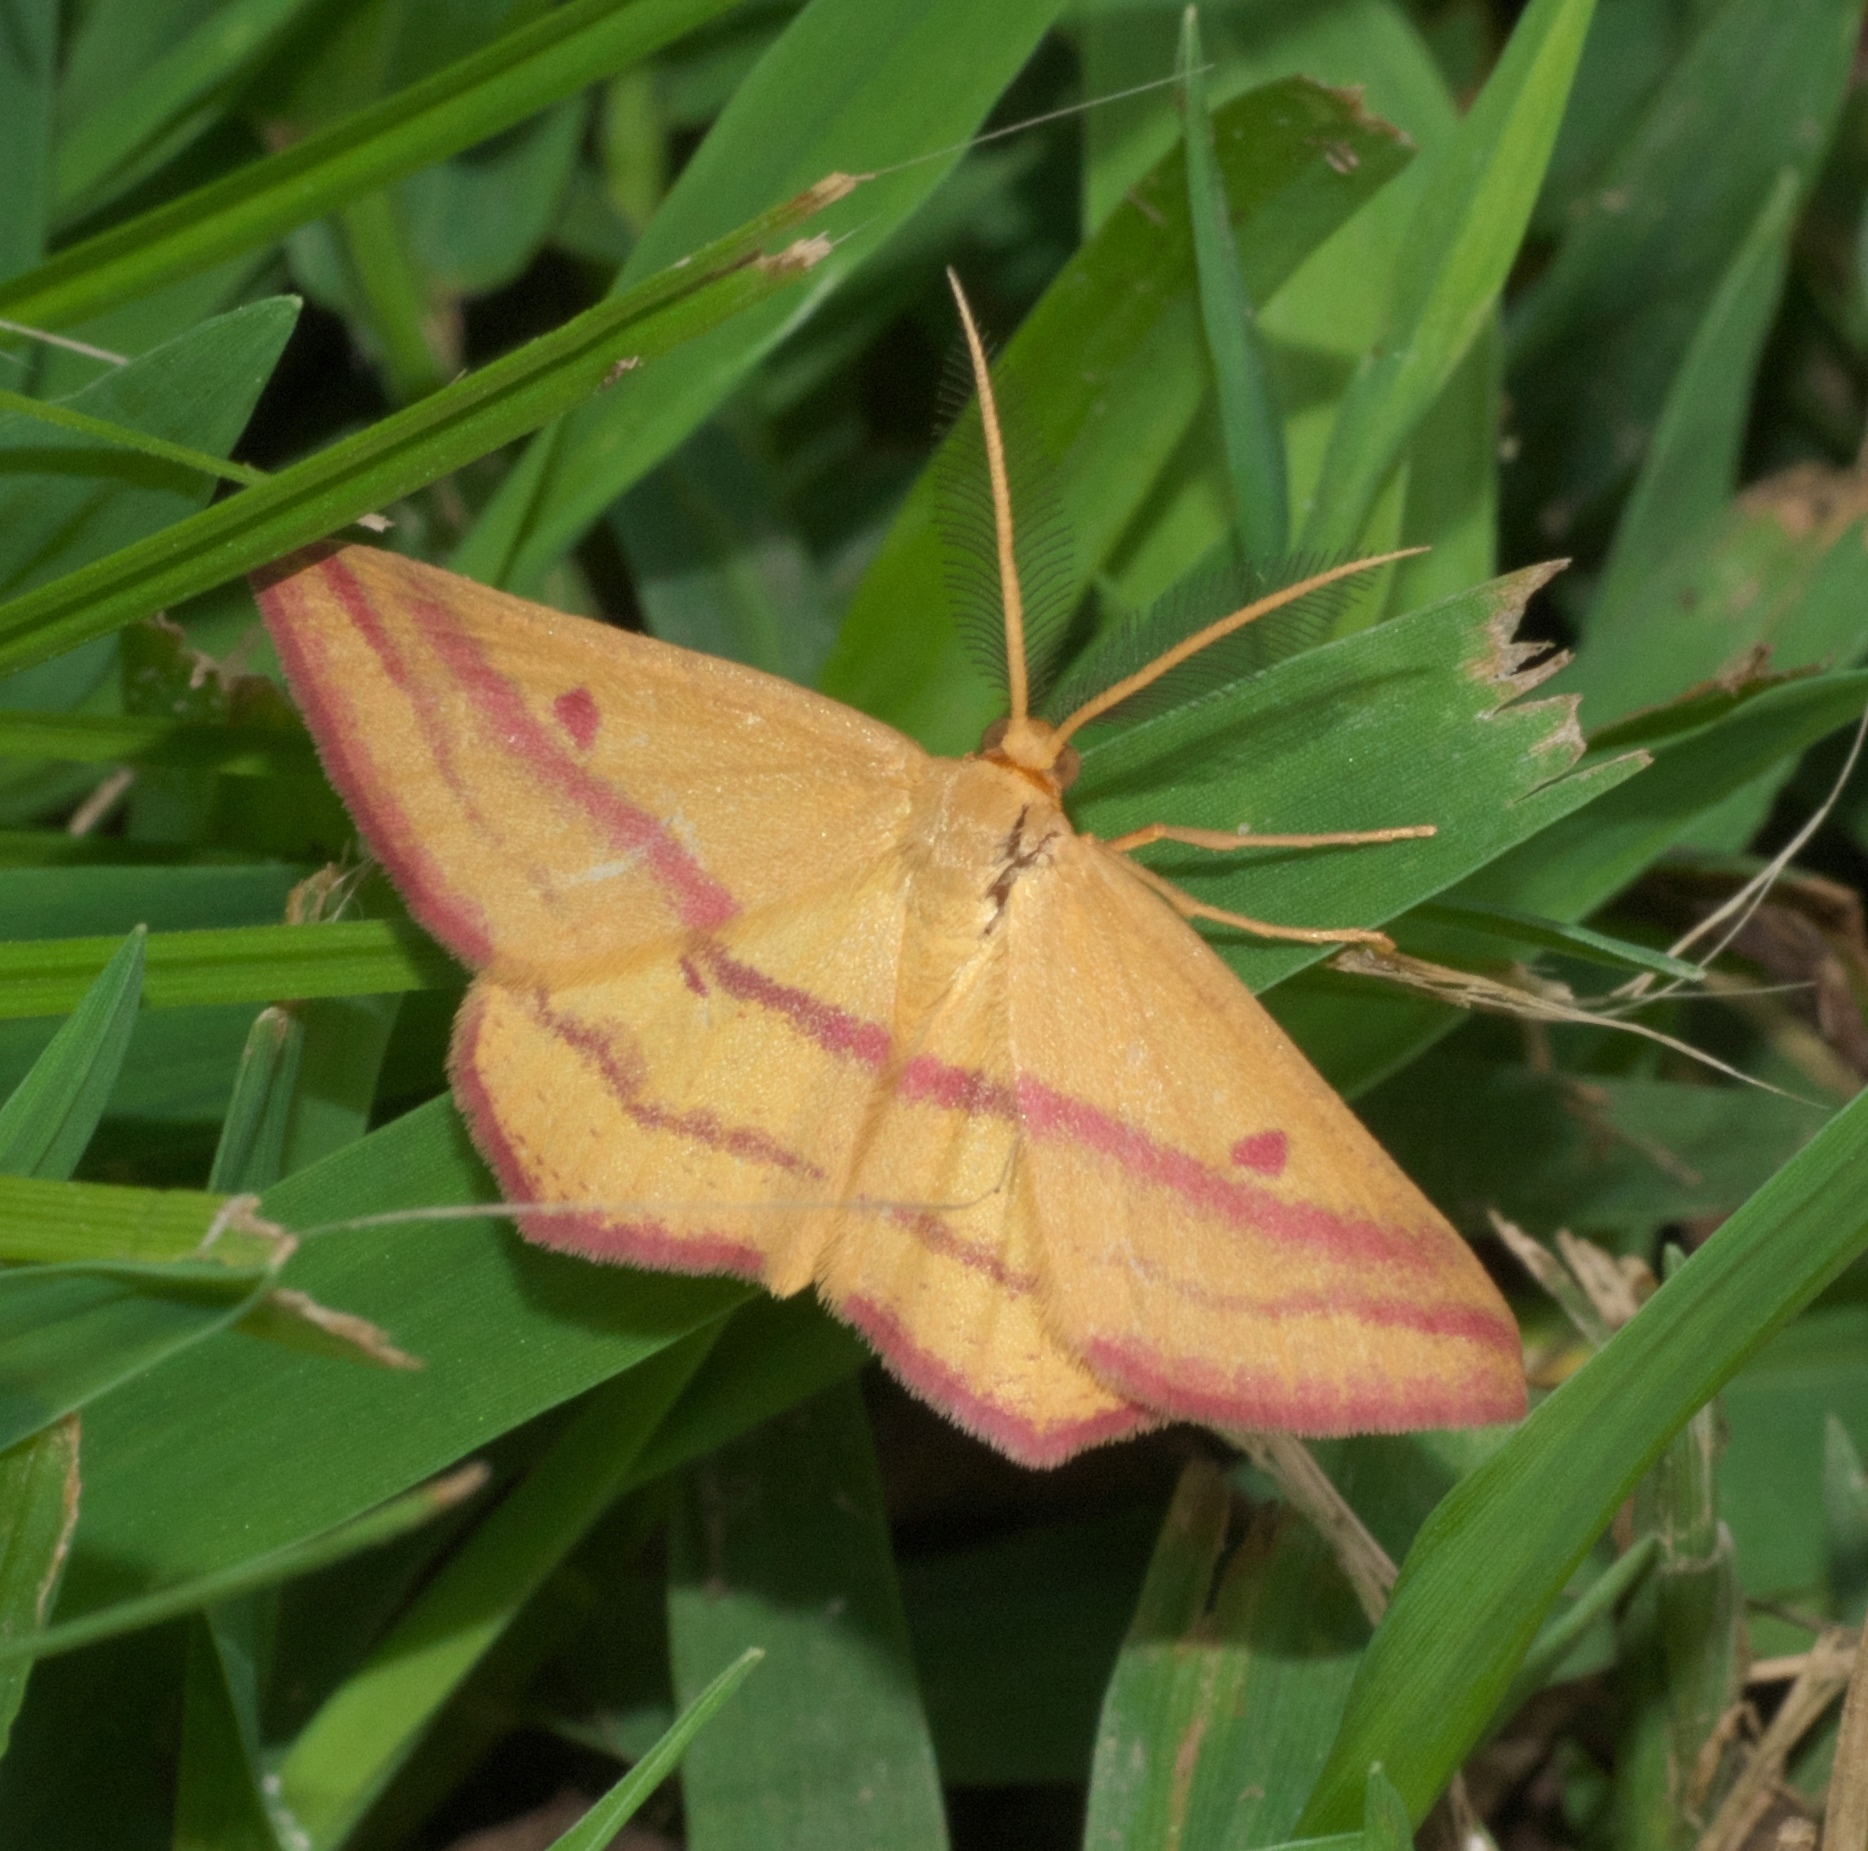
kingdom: Animalia
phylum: Arthropoda
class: Insecta
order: Lepidoptera
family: Geometridae
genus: Haematopis
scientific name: Haematopis grataria
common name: Chickweed geometer
